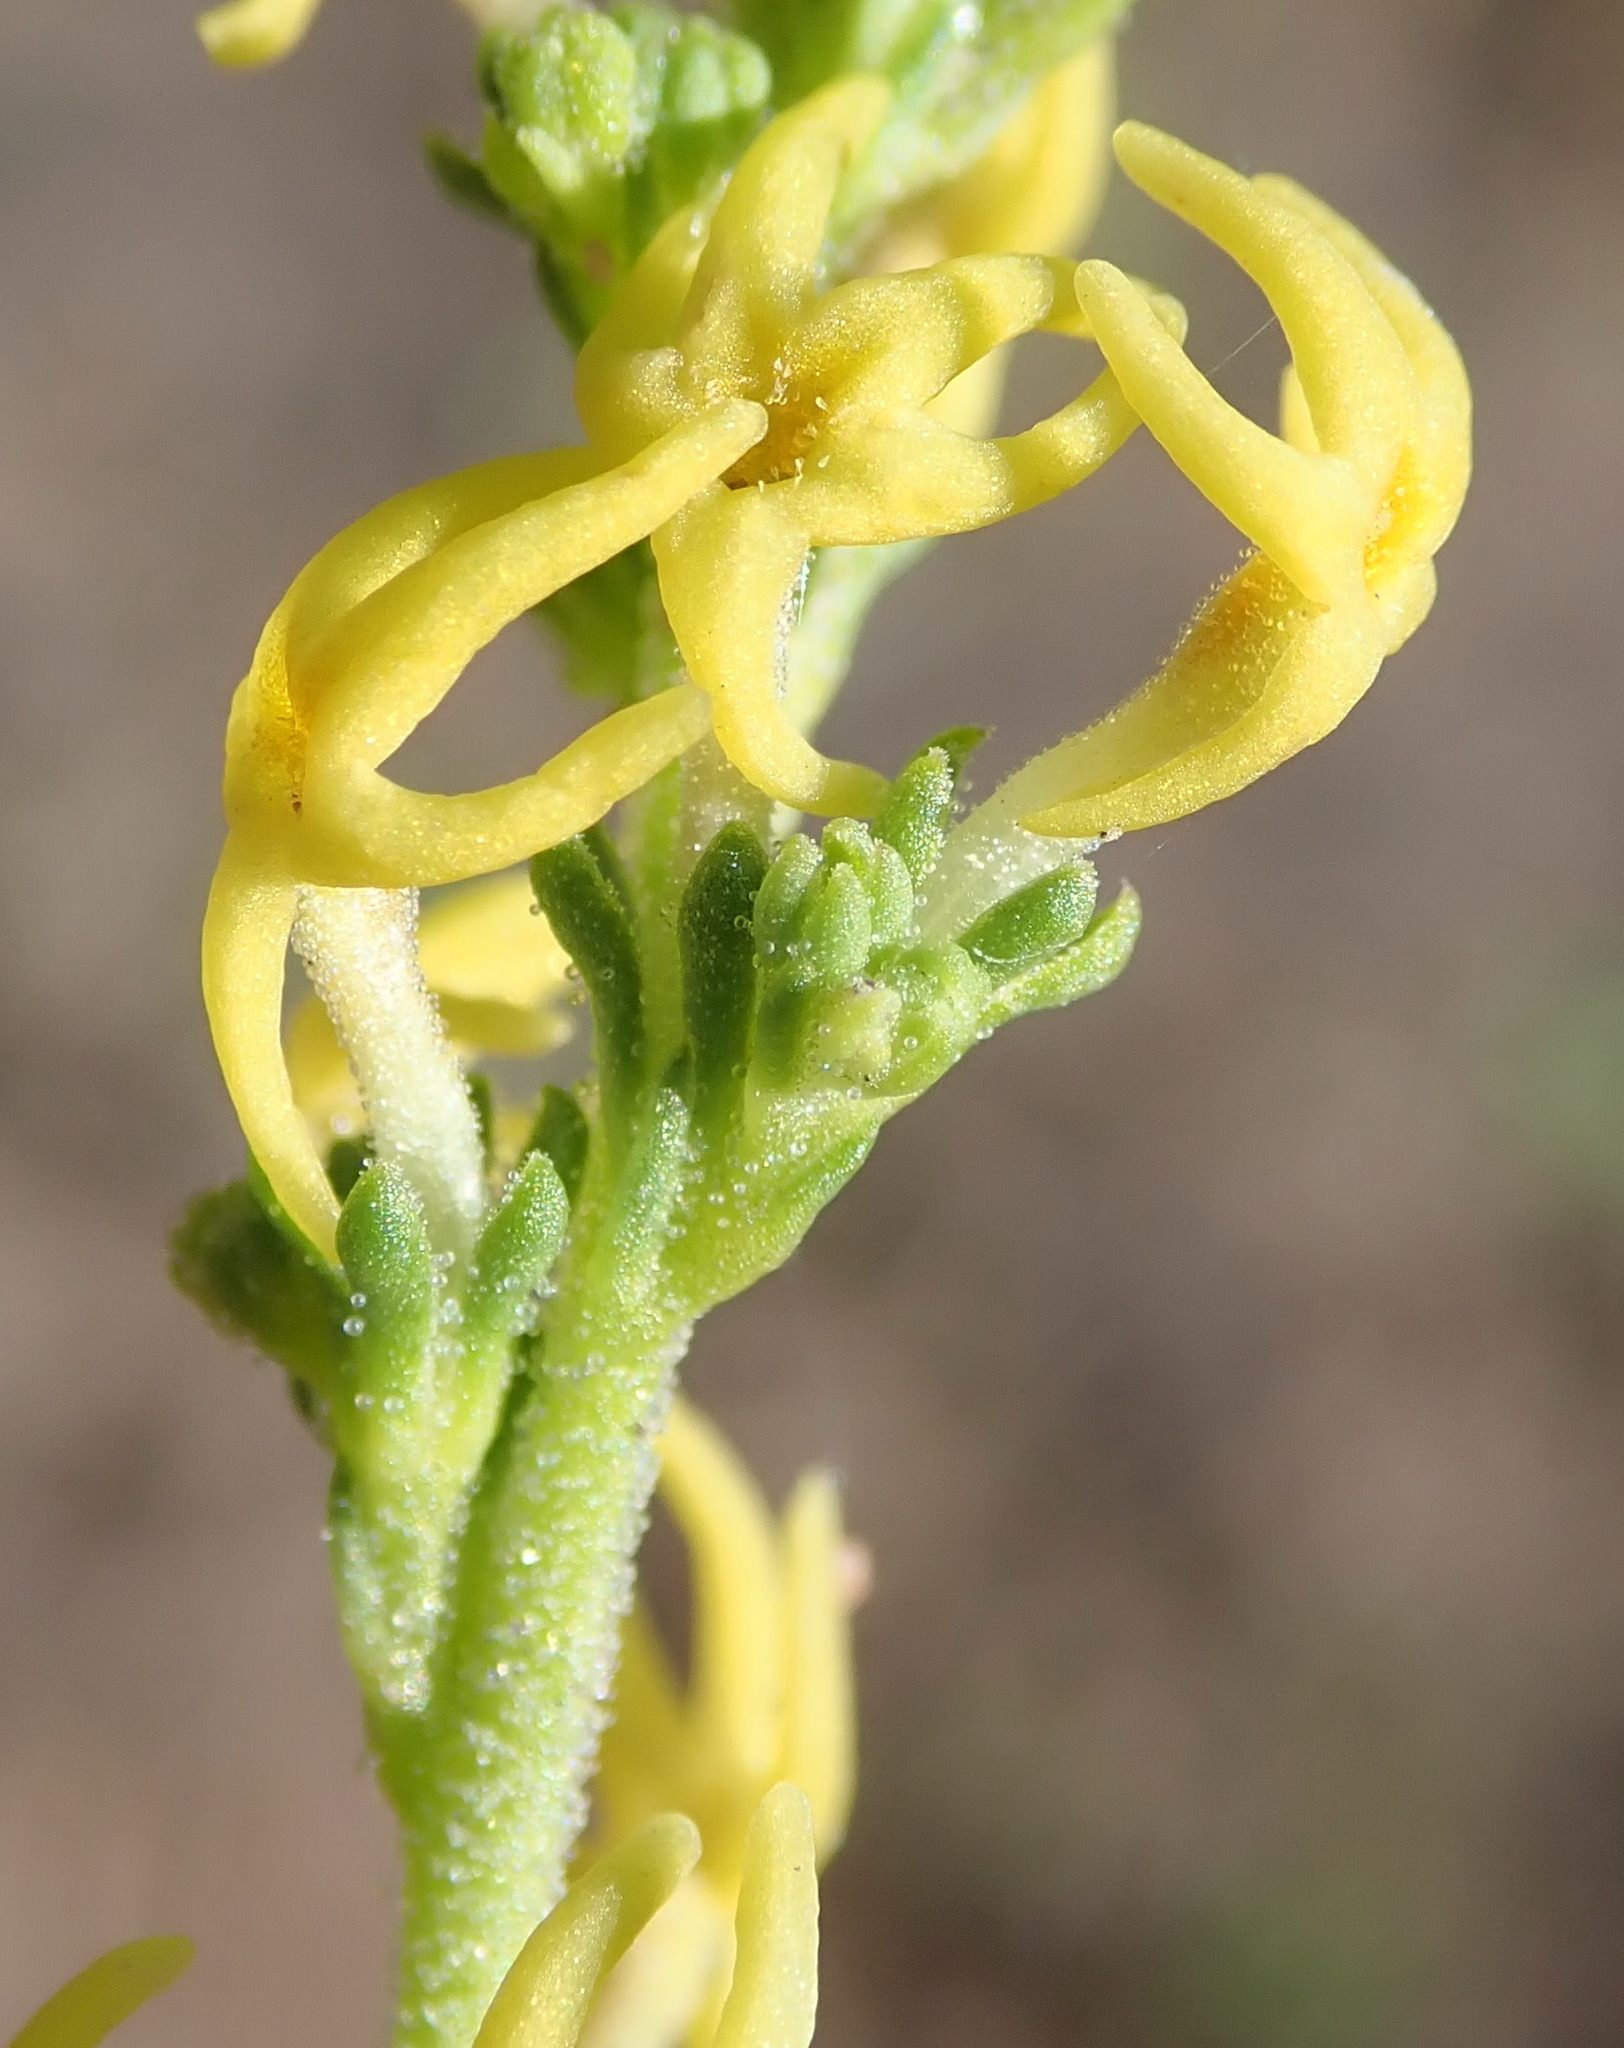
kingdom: Plantae
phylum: Tracheophyta
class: Magnoliopsida
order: Lamiales
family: Scrophulariaceae
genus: Manulea
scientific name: Manulea cheiranthus
